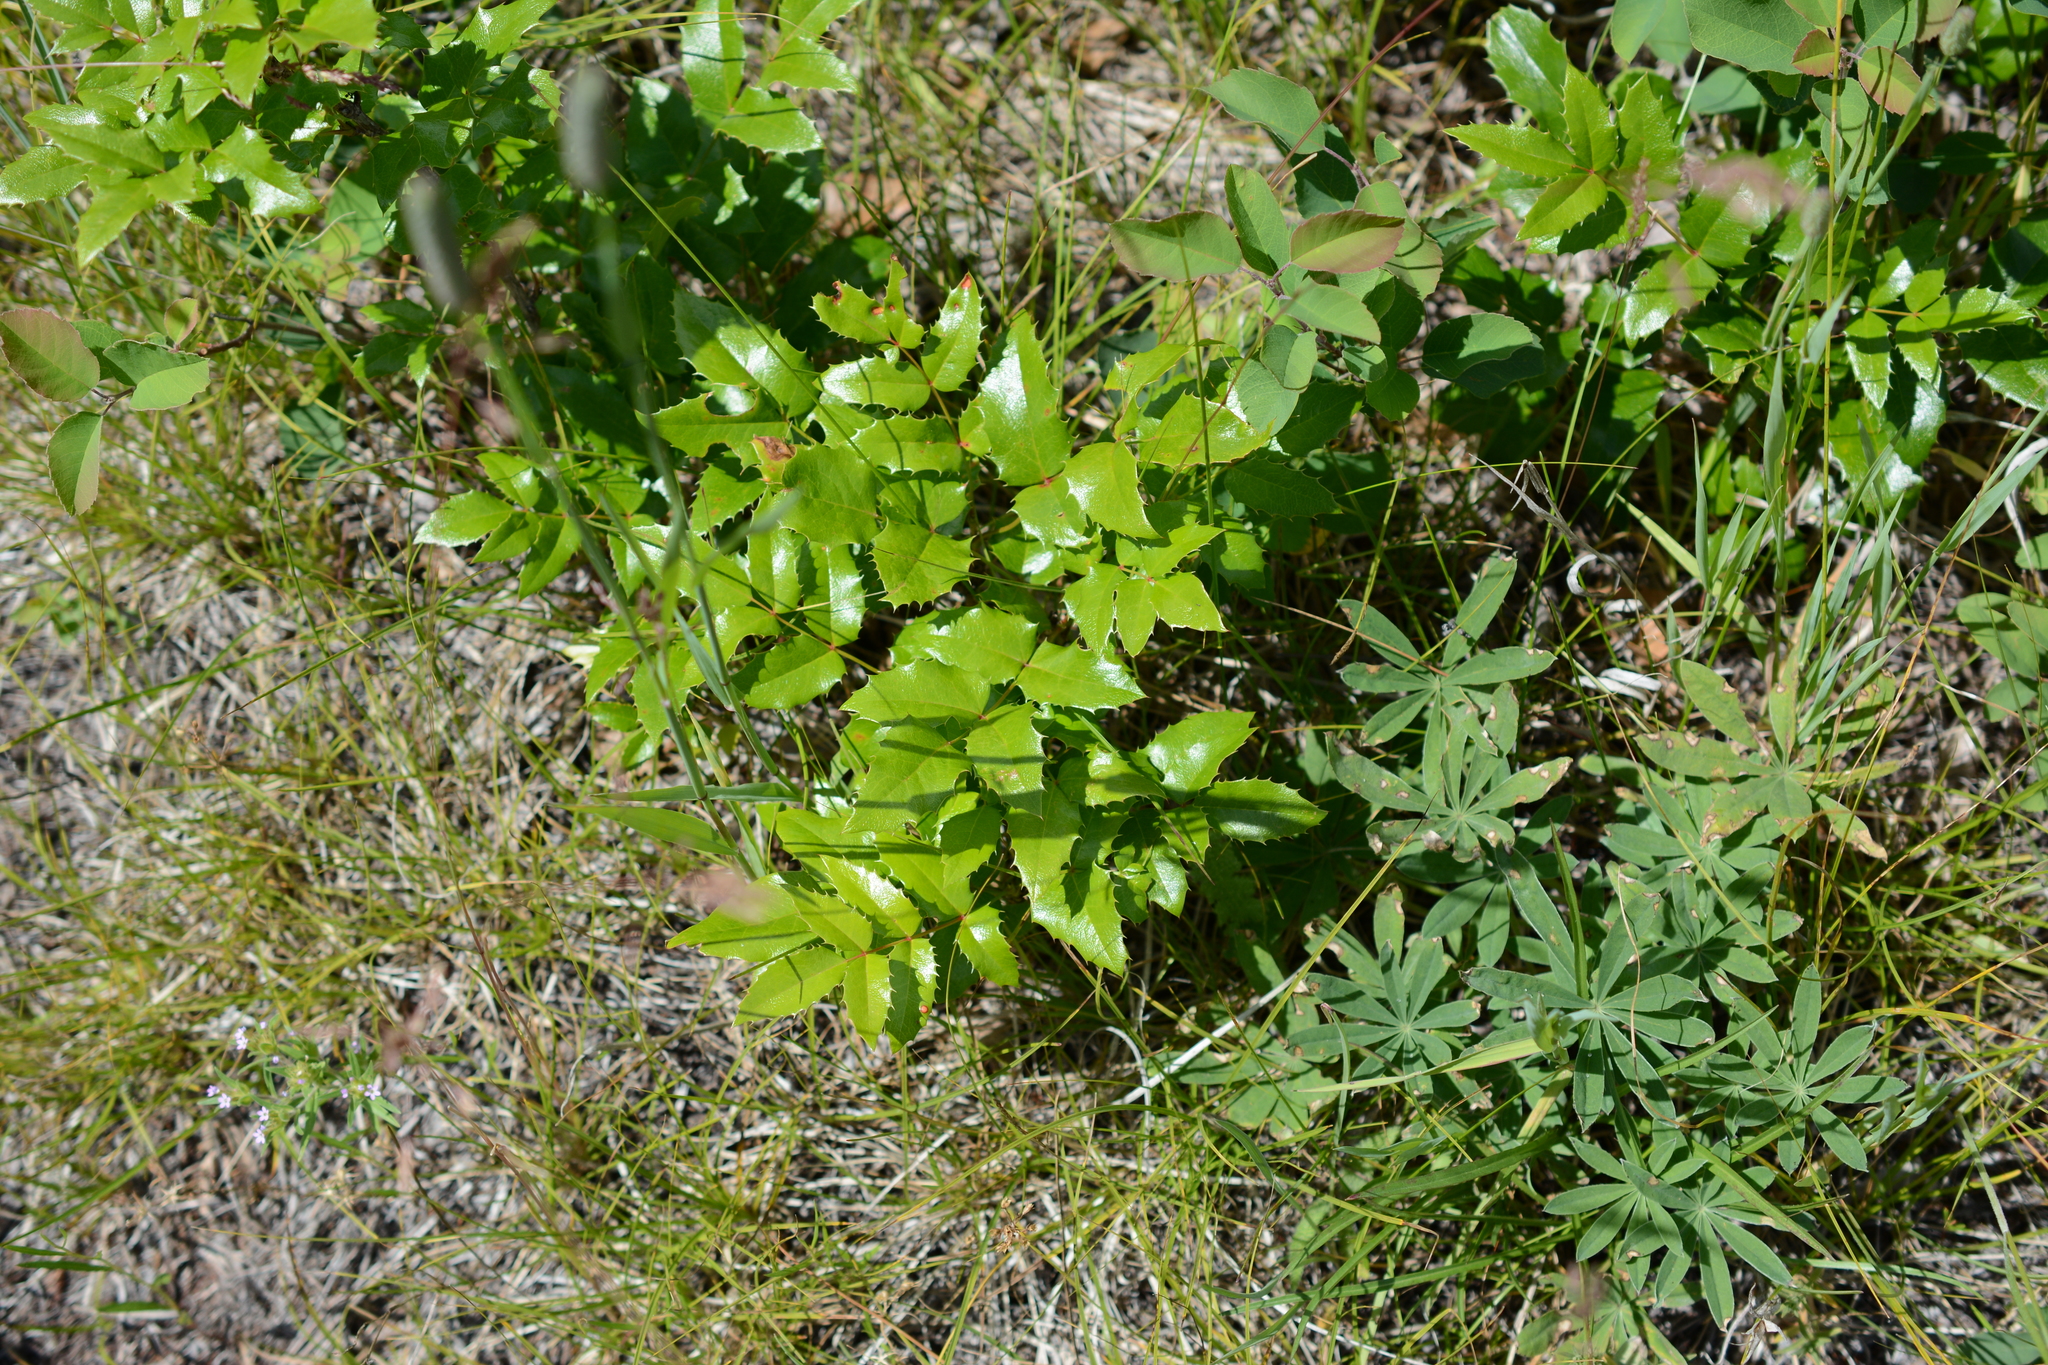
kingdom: Plantae
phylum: Tracheophyta
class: Magnoliopsida
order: Ranunculales
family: Berberidaceae
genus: Mahonia
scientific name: Mahonia aquifolium
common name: Oregon-grape
